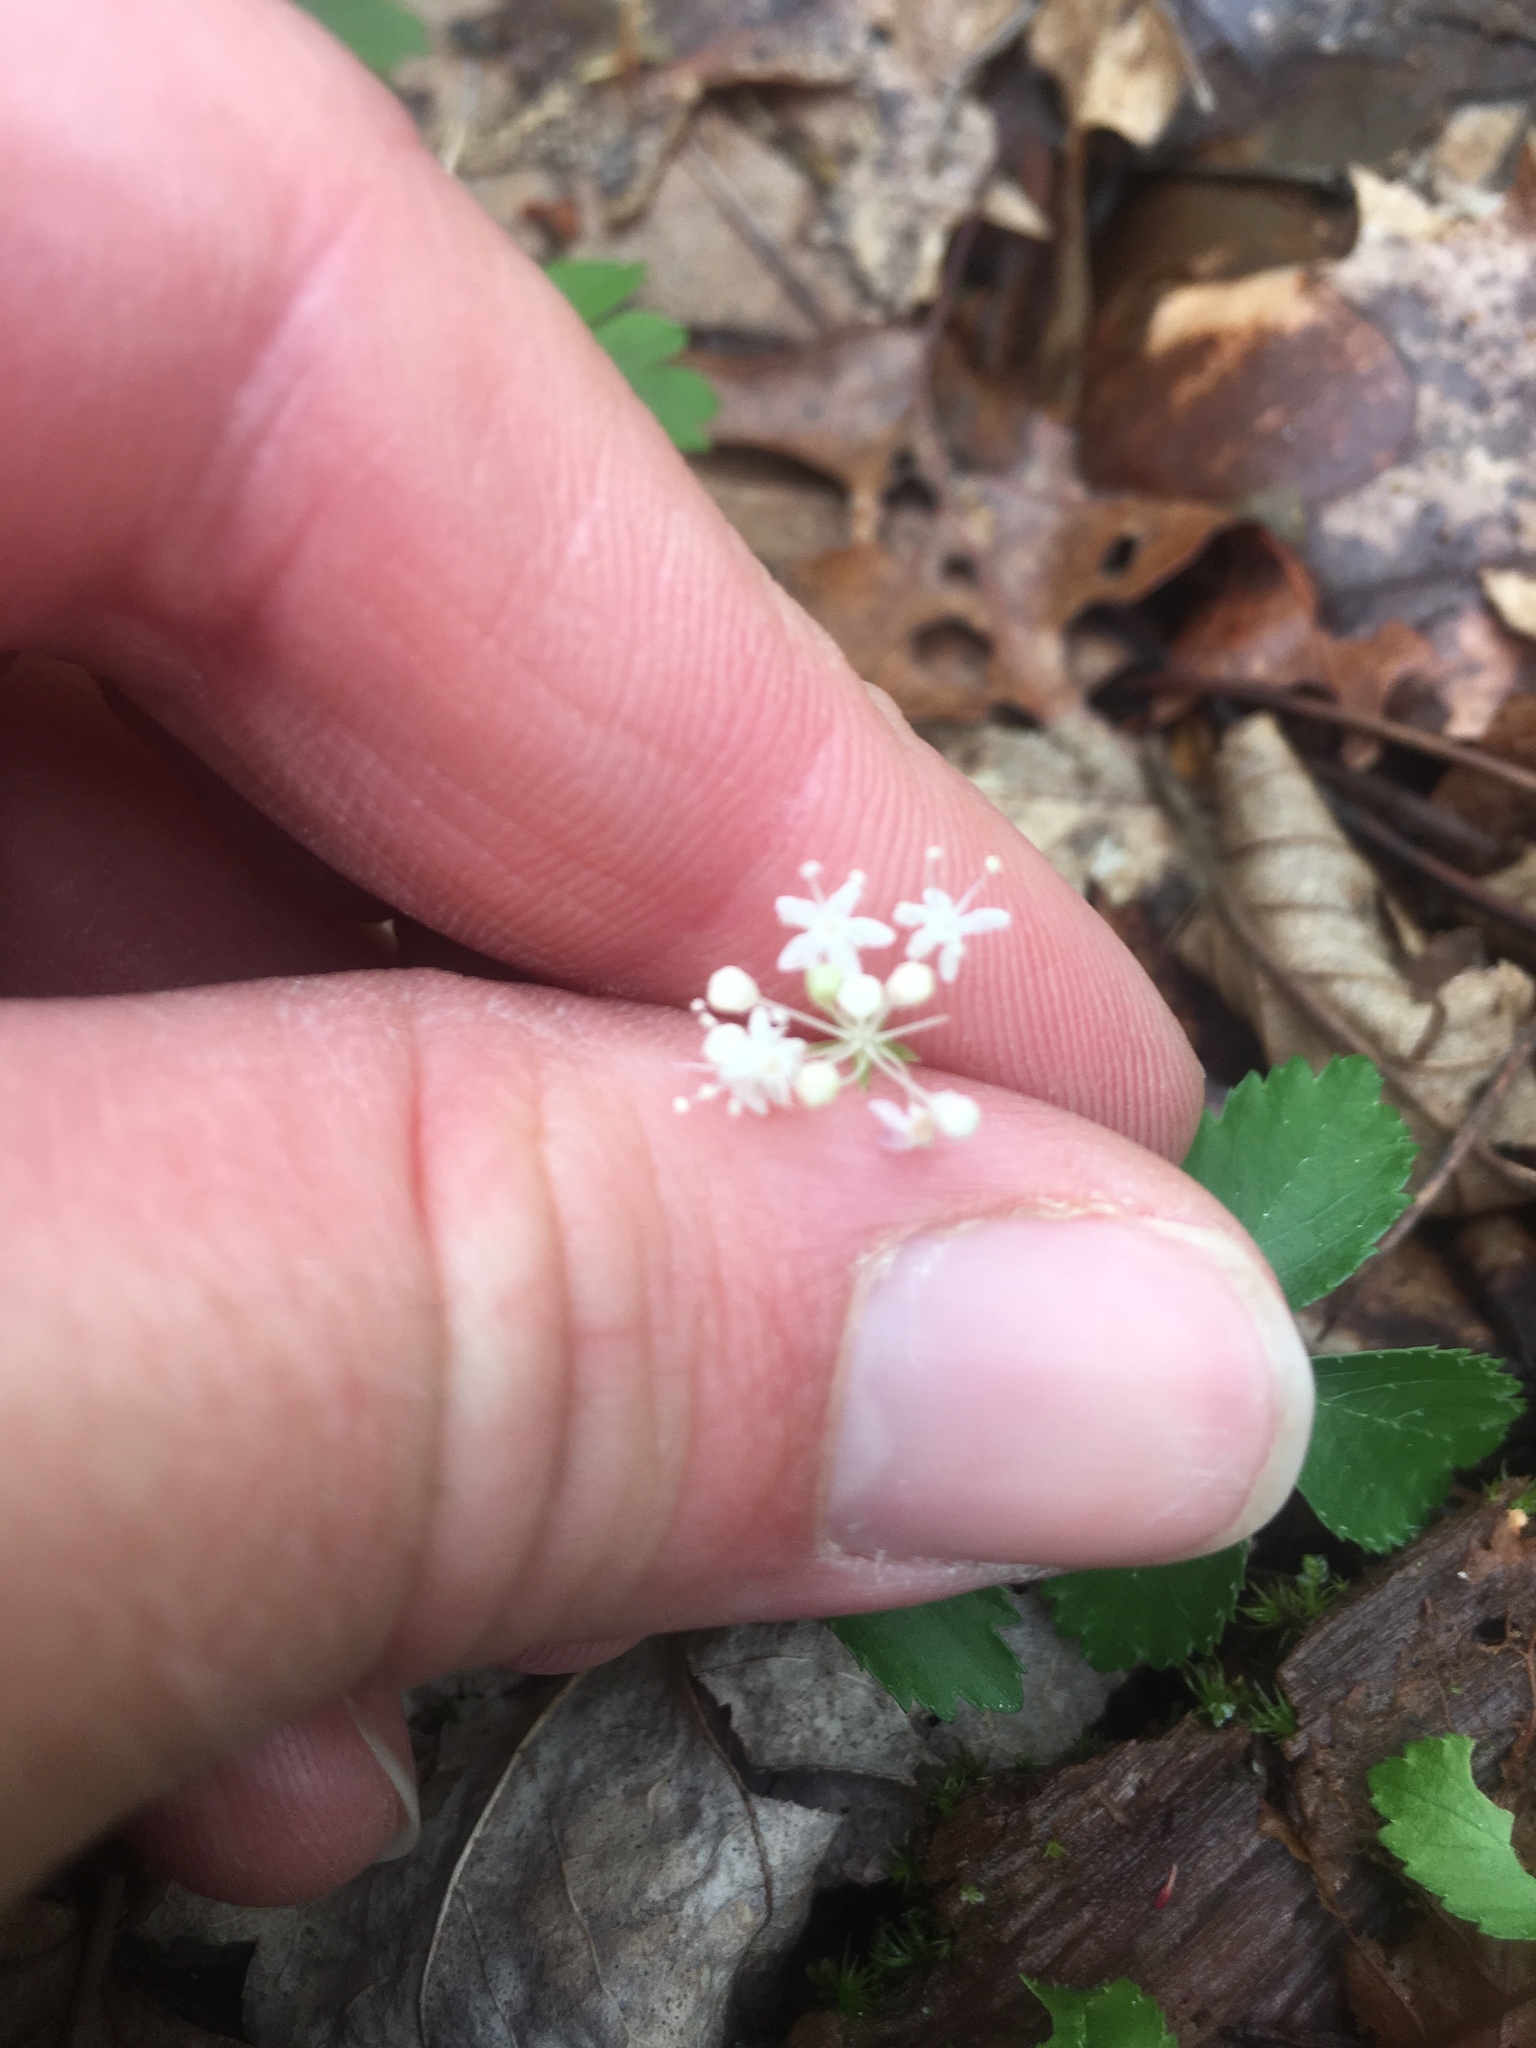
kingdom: Plantae
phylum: Tracheophyta
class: Magnoliopsida
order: Apiales
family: Araliaceae
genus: Panax
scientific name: Panax trifolius
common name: Dwarf ginseng
